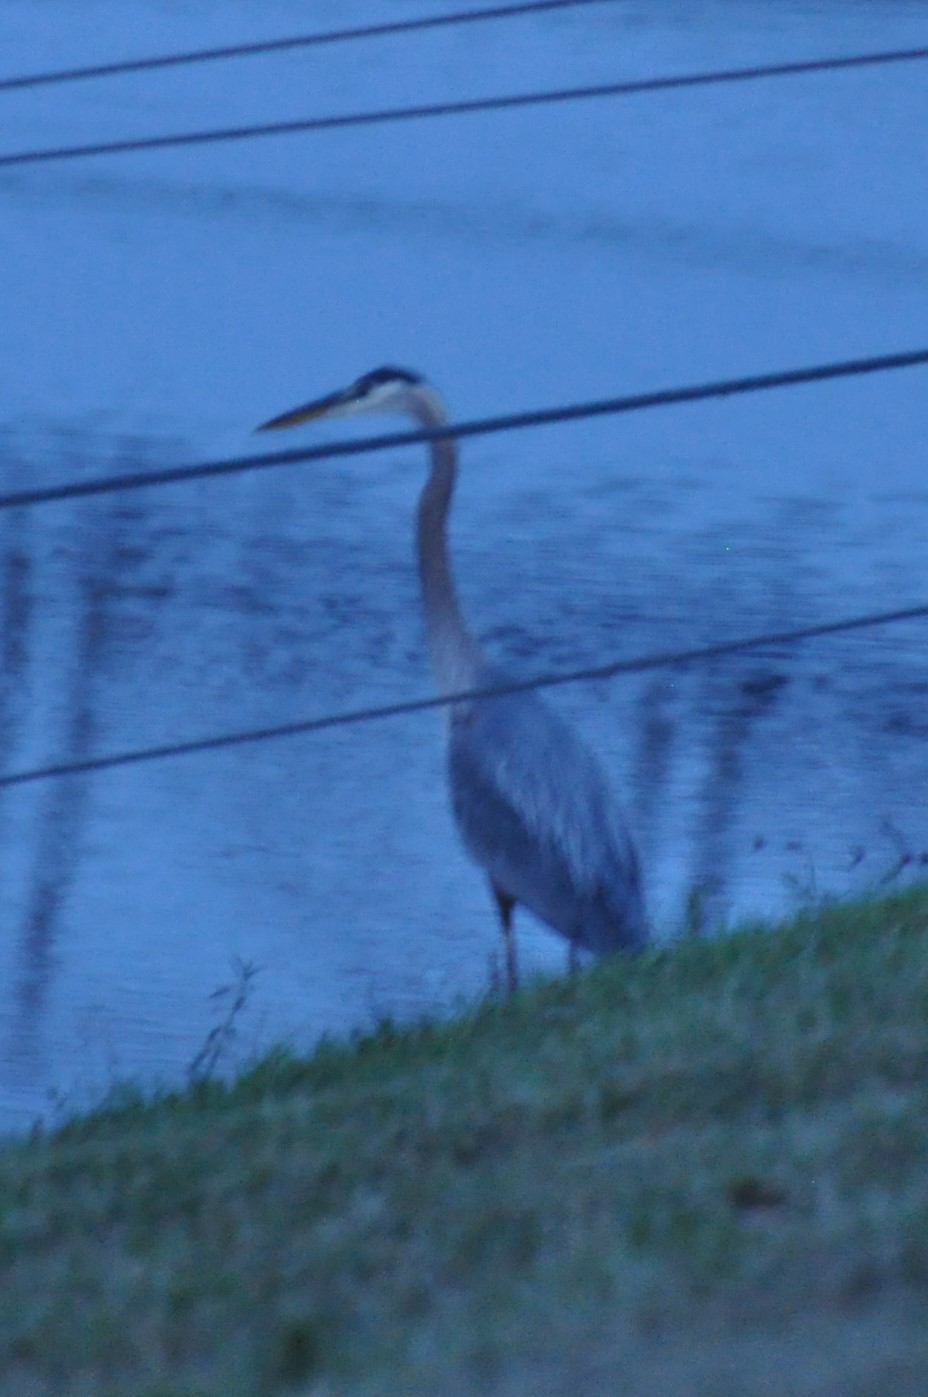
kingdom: Animalia
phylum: Chordata
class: Aves
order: Pelecaniformes
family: Ardeidae
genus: Ardea
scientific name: Ardea herodias
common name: Great blue heron
